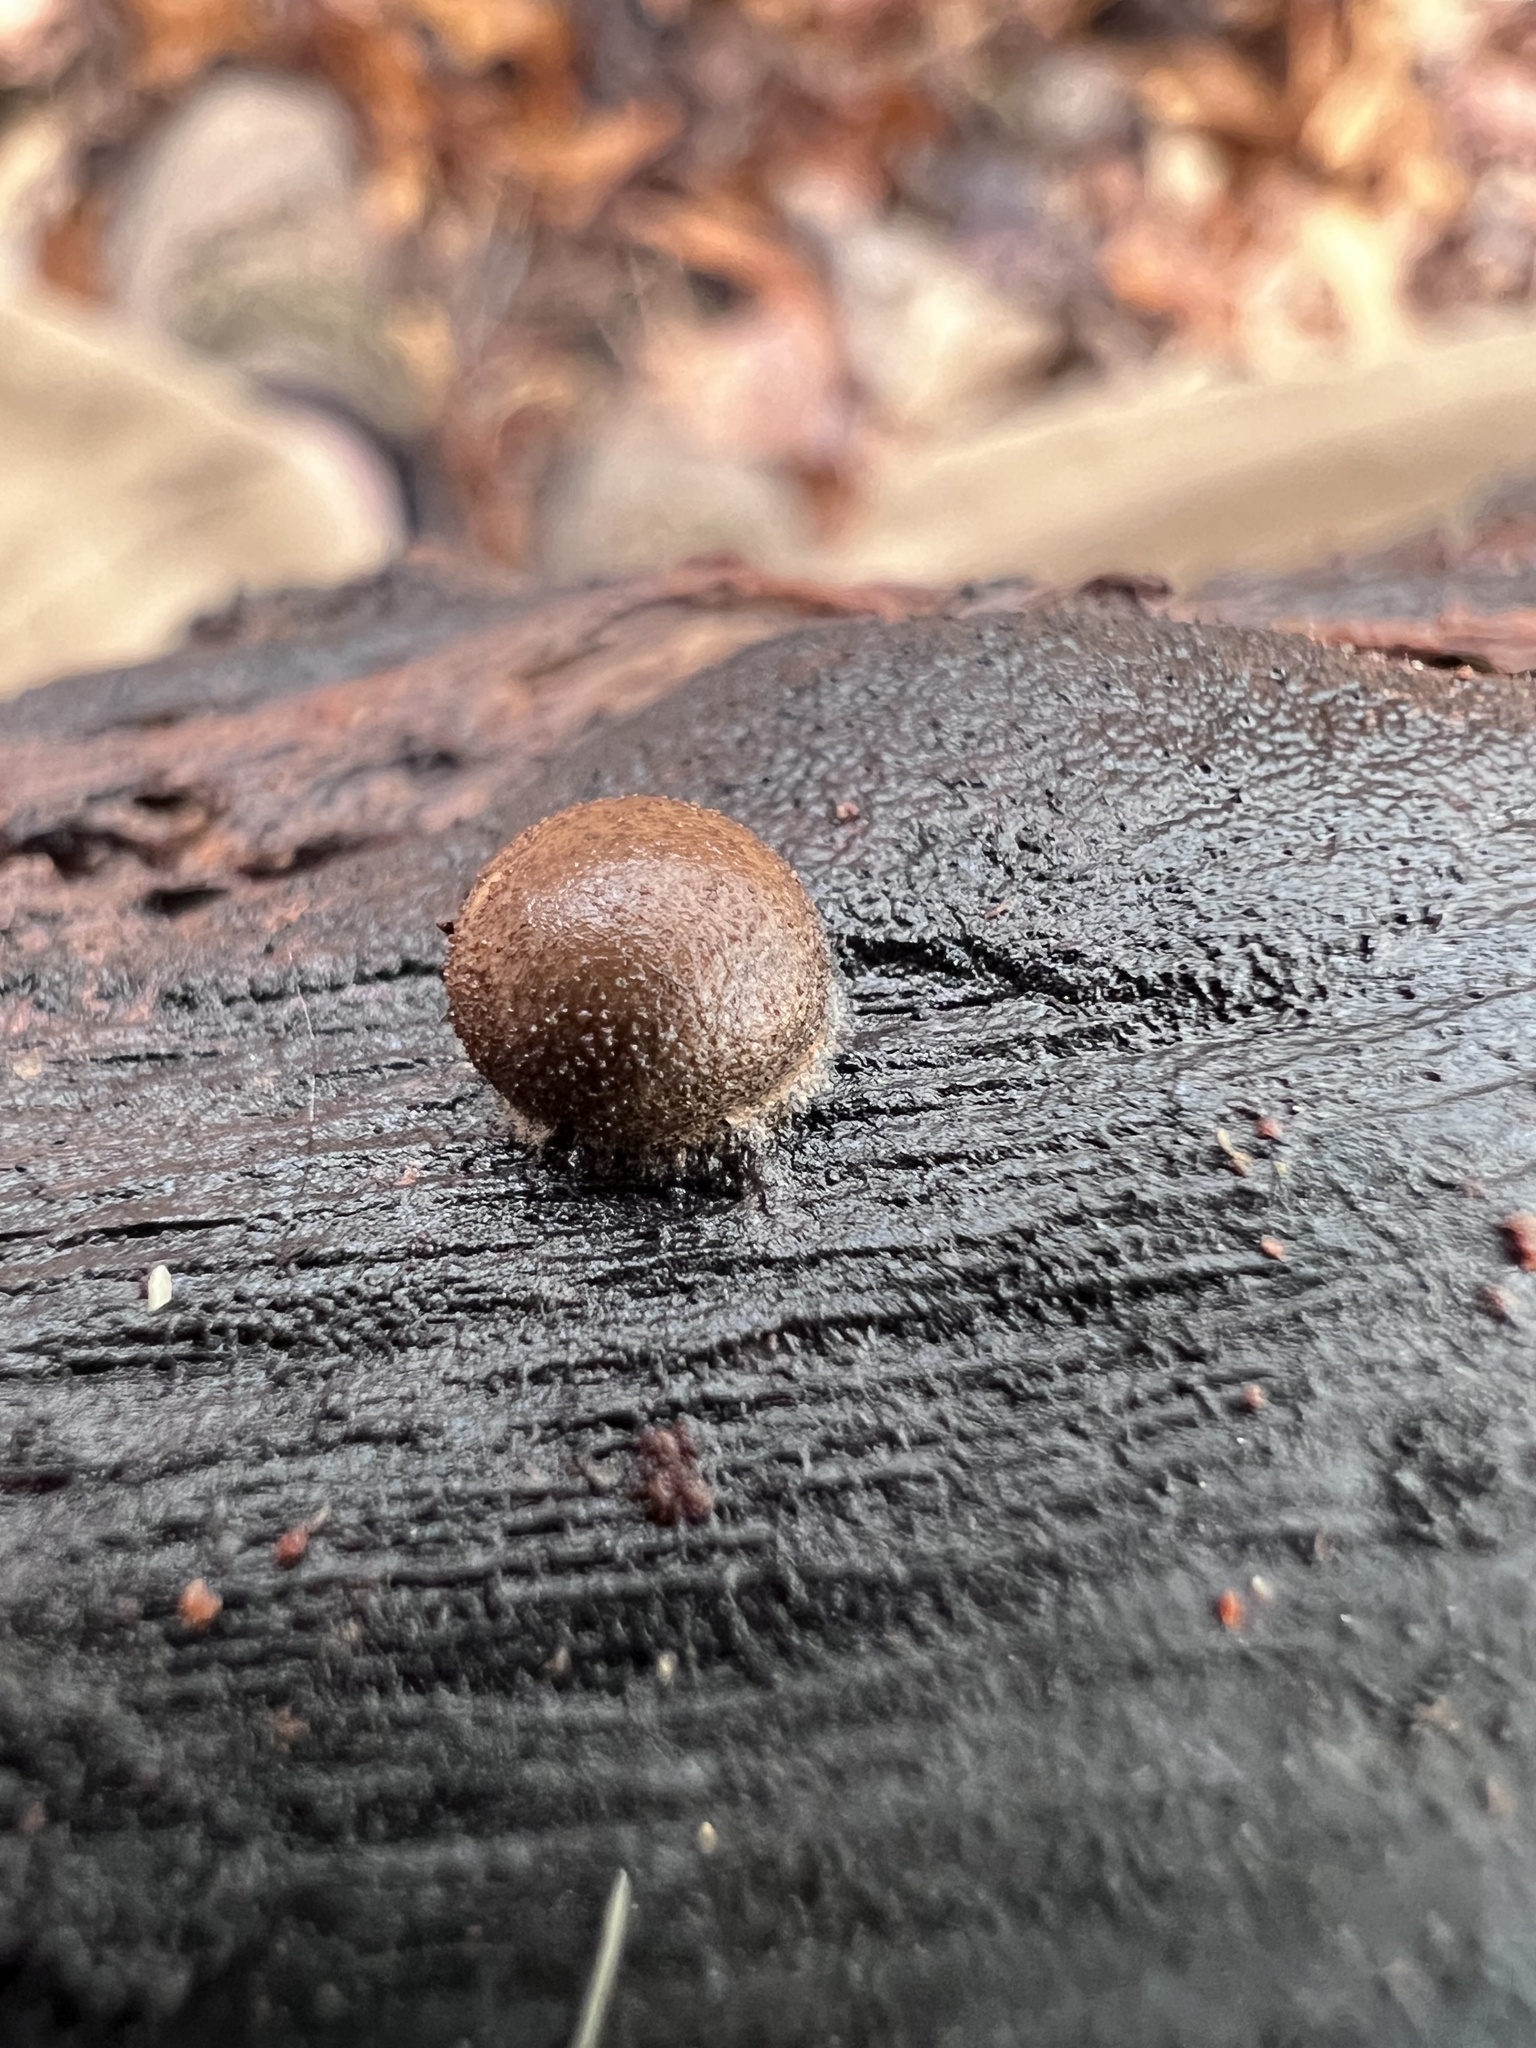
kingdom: Protozoa
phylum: Mycetozoa
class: Myxomycetes
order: Cribrariales
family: Tubiferaceae
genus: Lycogala
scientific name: Lycogala epidendrum
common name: Wolf's milk
